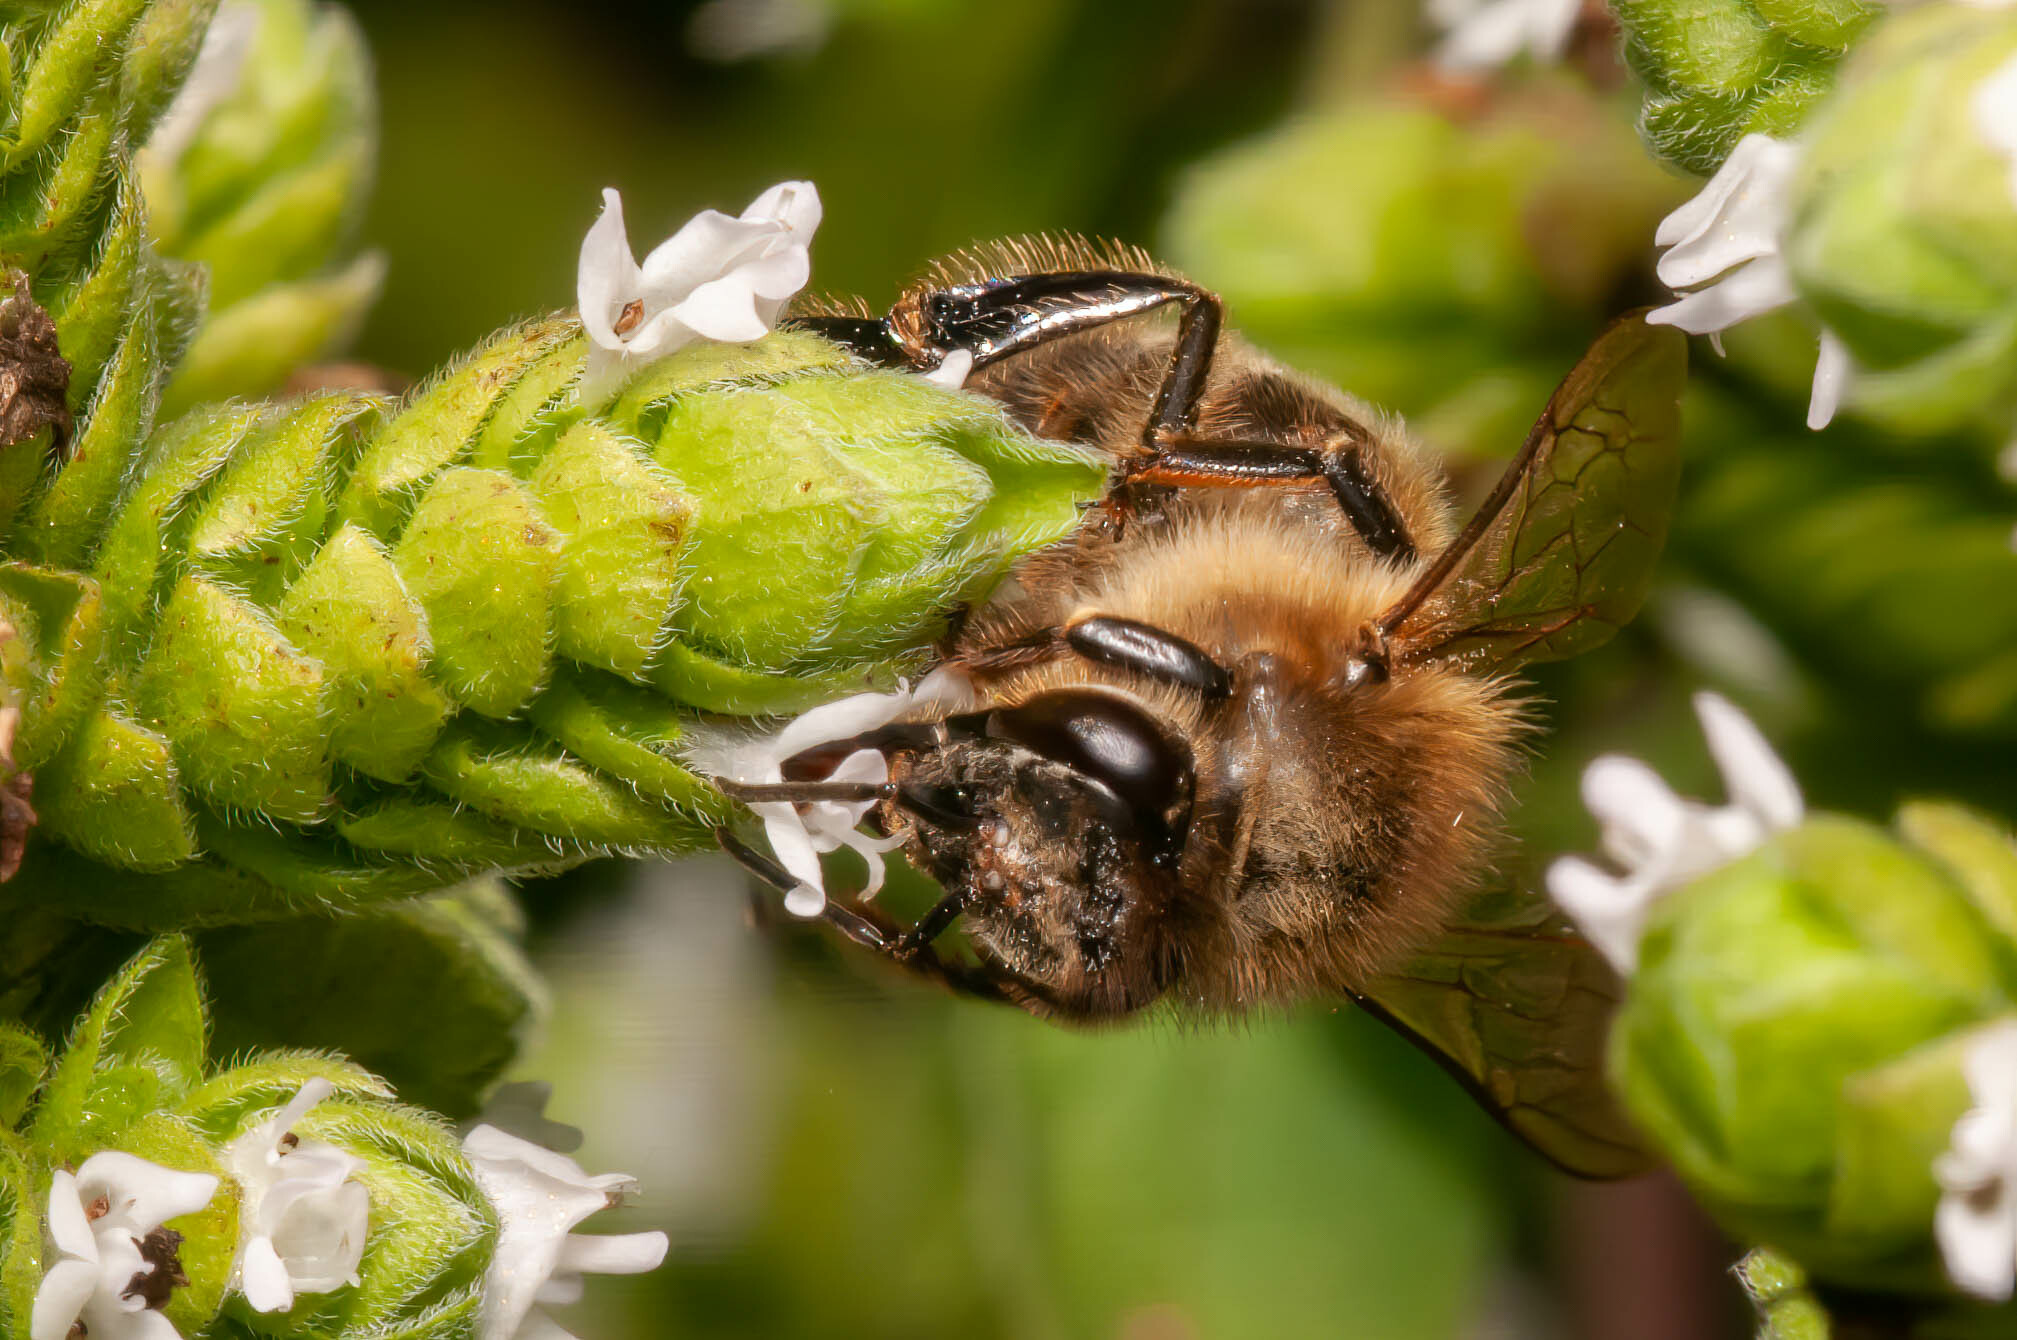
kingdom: Animalia
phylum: Arthropoda
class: Insecta
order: Hymenoptera
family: Apidae
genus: Apis
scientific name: Apis mellifera
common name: Honey bee
